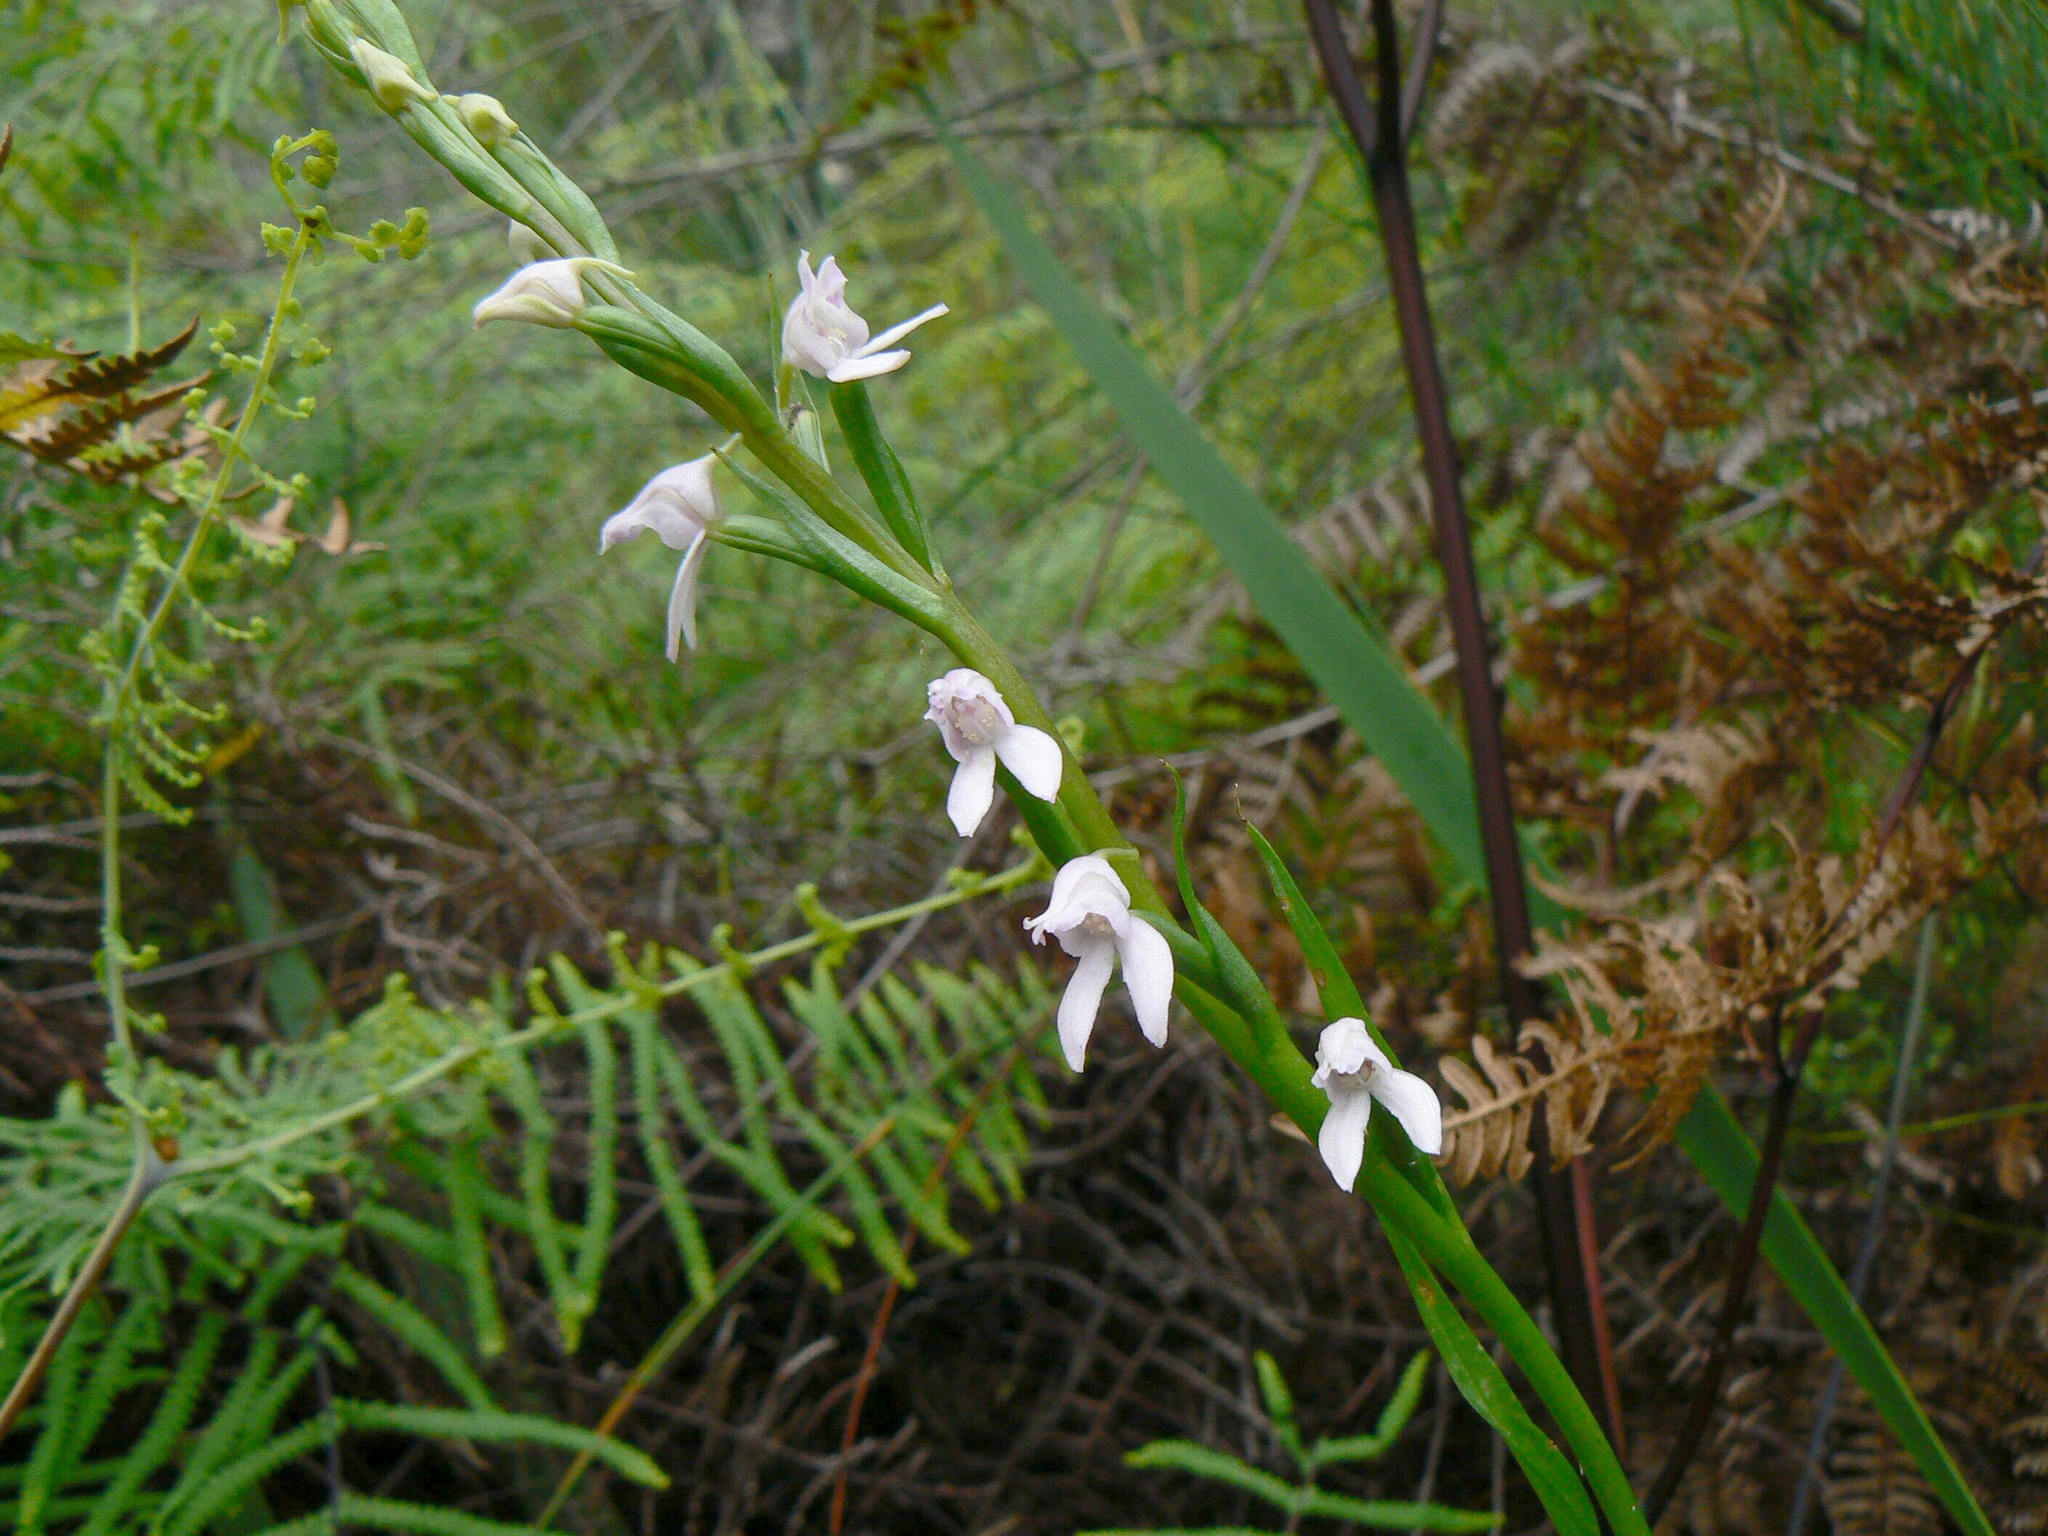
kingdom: Plantae
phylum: Tracheophyta
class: Liliopsida
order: Asparagales
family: Orchidaceae
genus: Brownleea
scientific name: Brownleea recurvata
